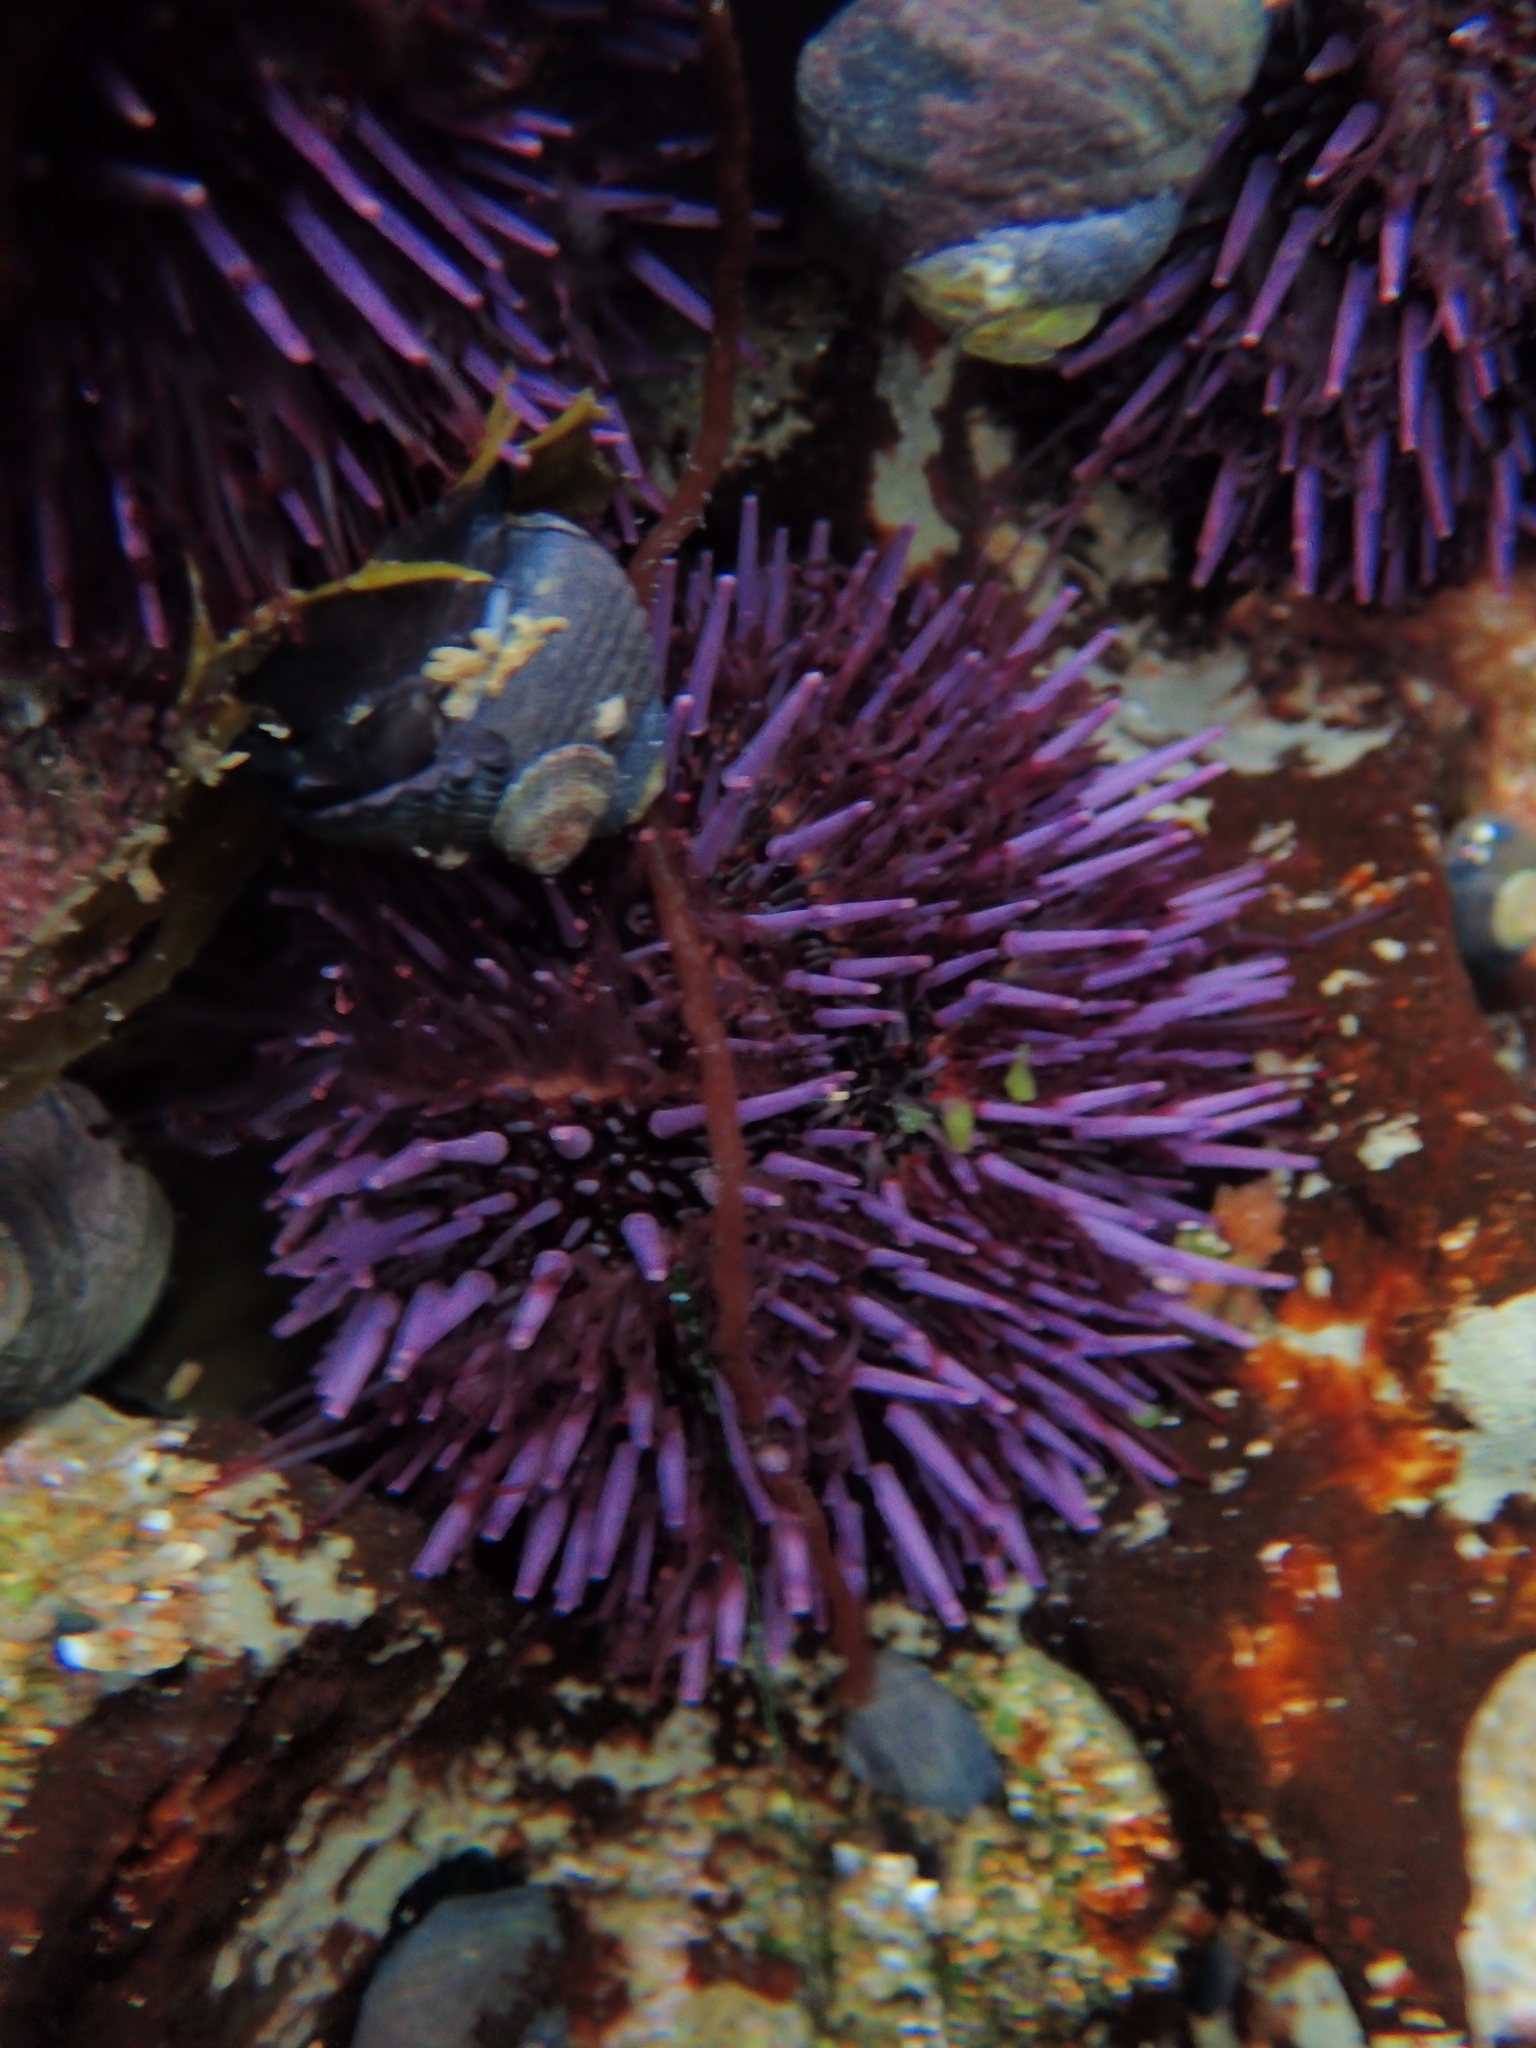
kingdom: Animalia
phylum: Echinodermata
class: Echinoidea
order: Camarodonta
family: Strongylocentrotidae
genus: Strongylocentrotus
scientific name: Strongylocentrotus purpuratus
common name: Purple sea urchin
